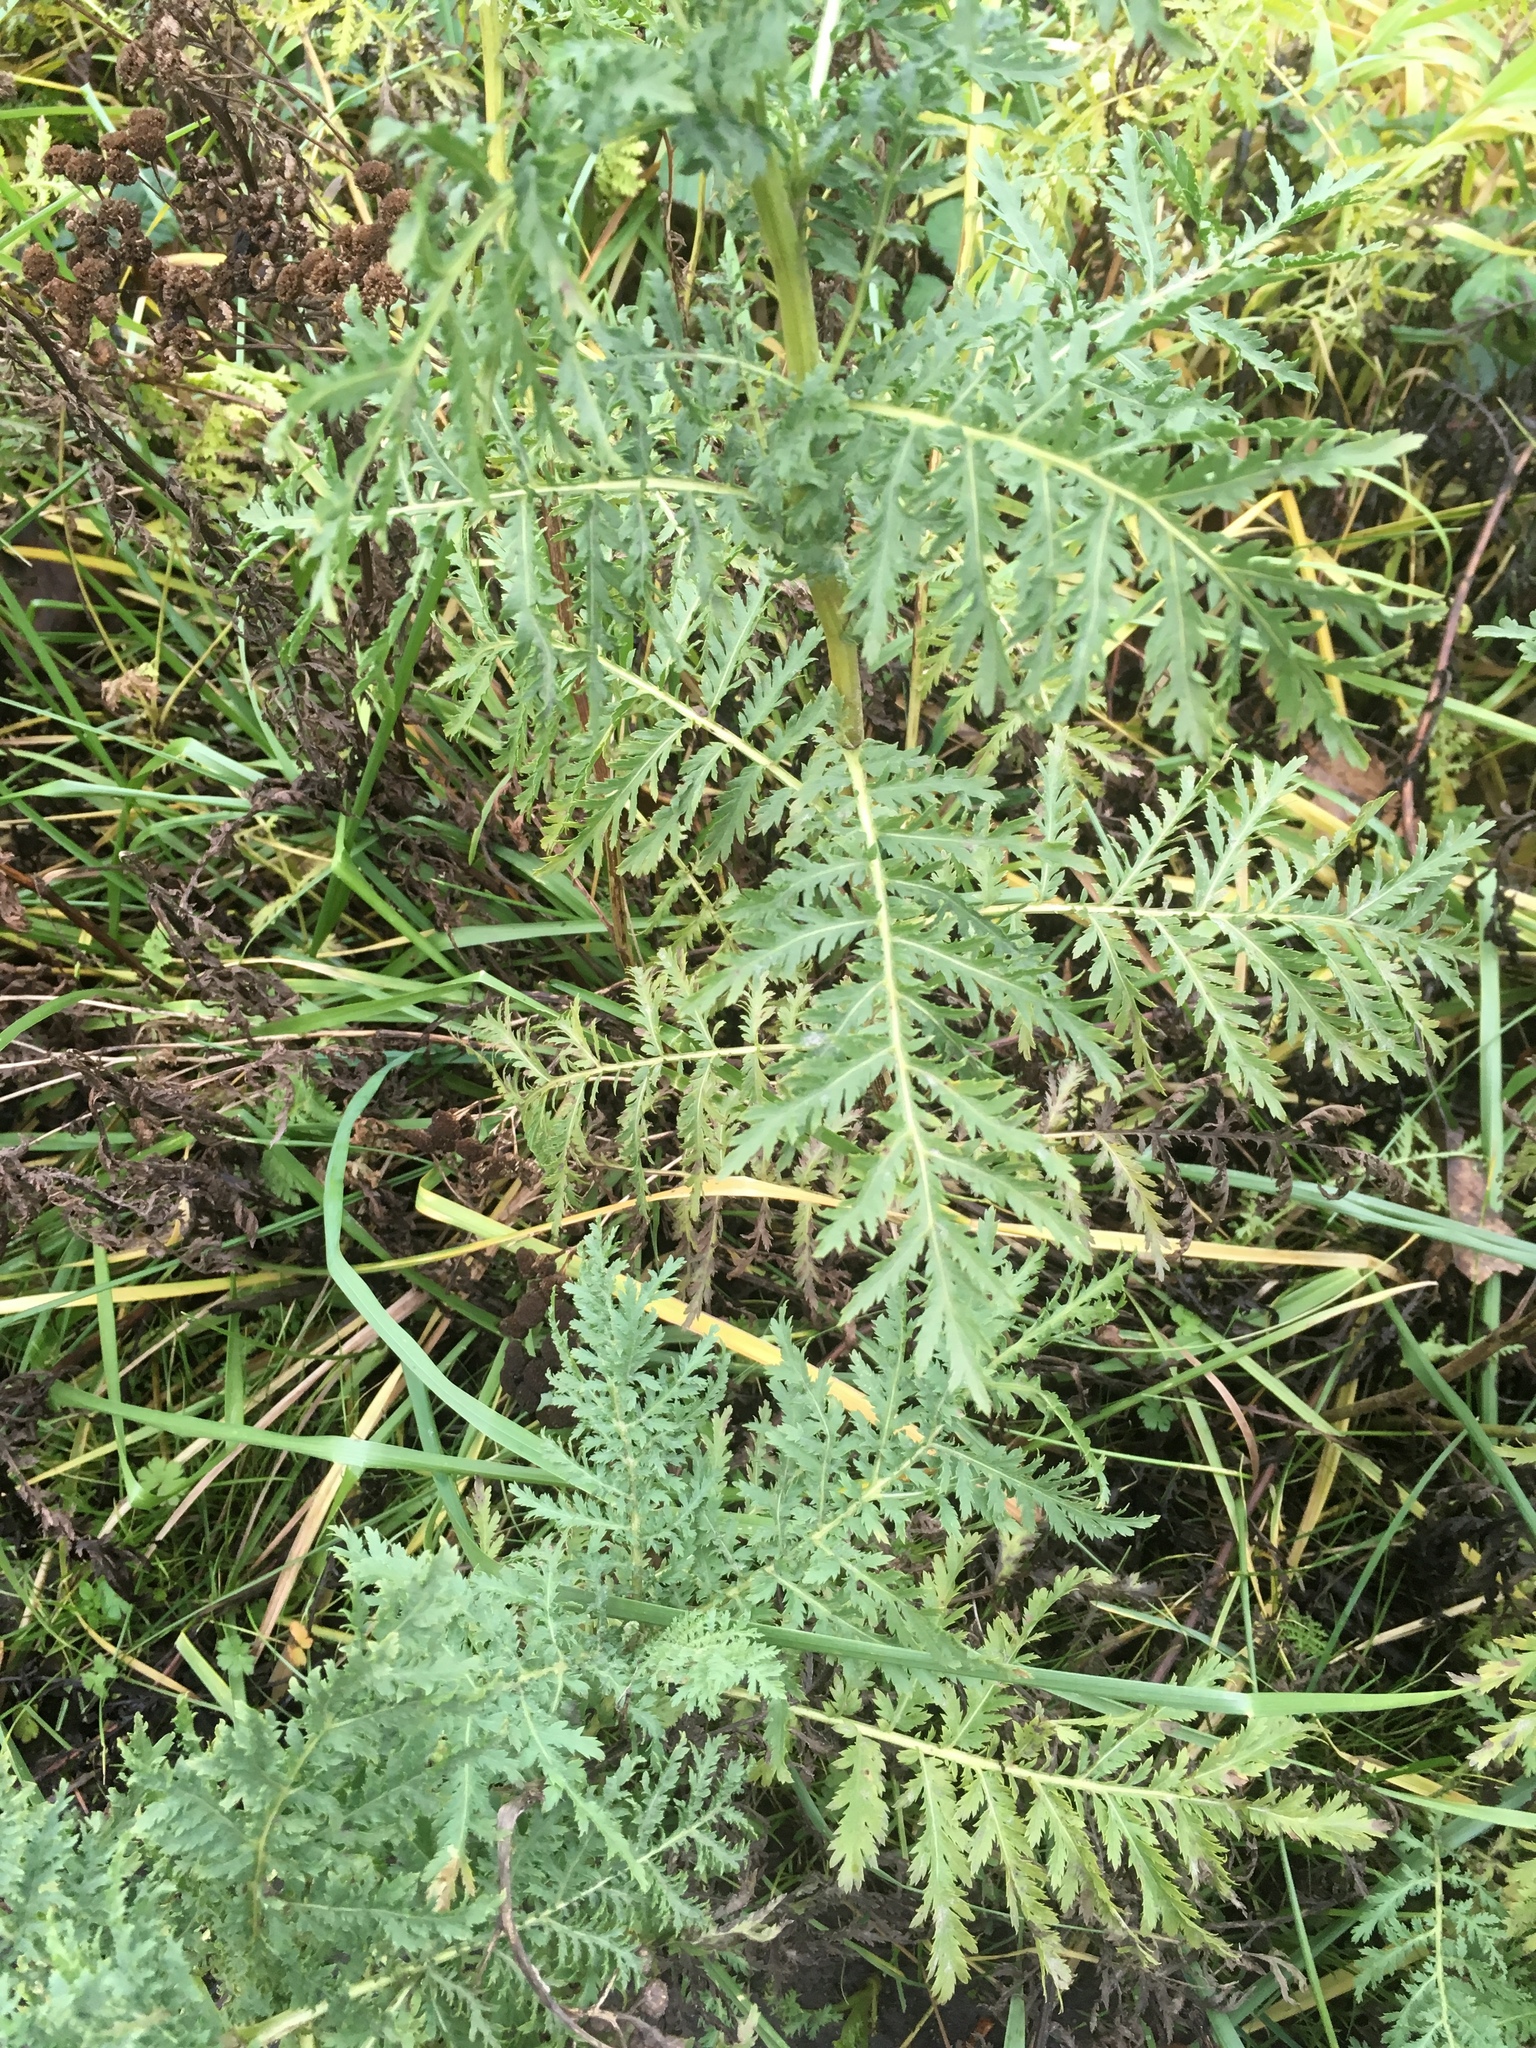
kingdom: Plantae
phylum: Tracheophyta
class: Magnoliopsida
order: Asterales
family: Asteraceae
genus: Tanacetum
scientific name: Tanacetum vulgare
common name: Common tansy
